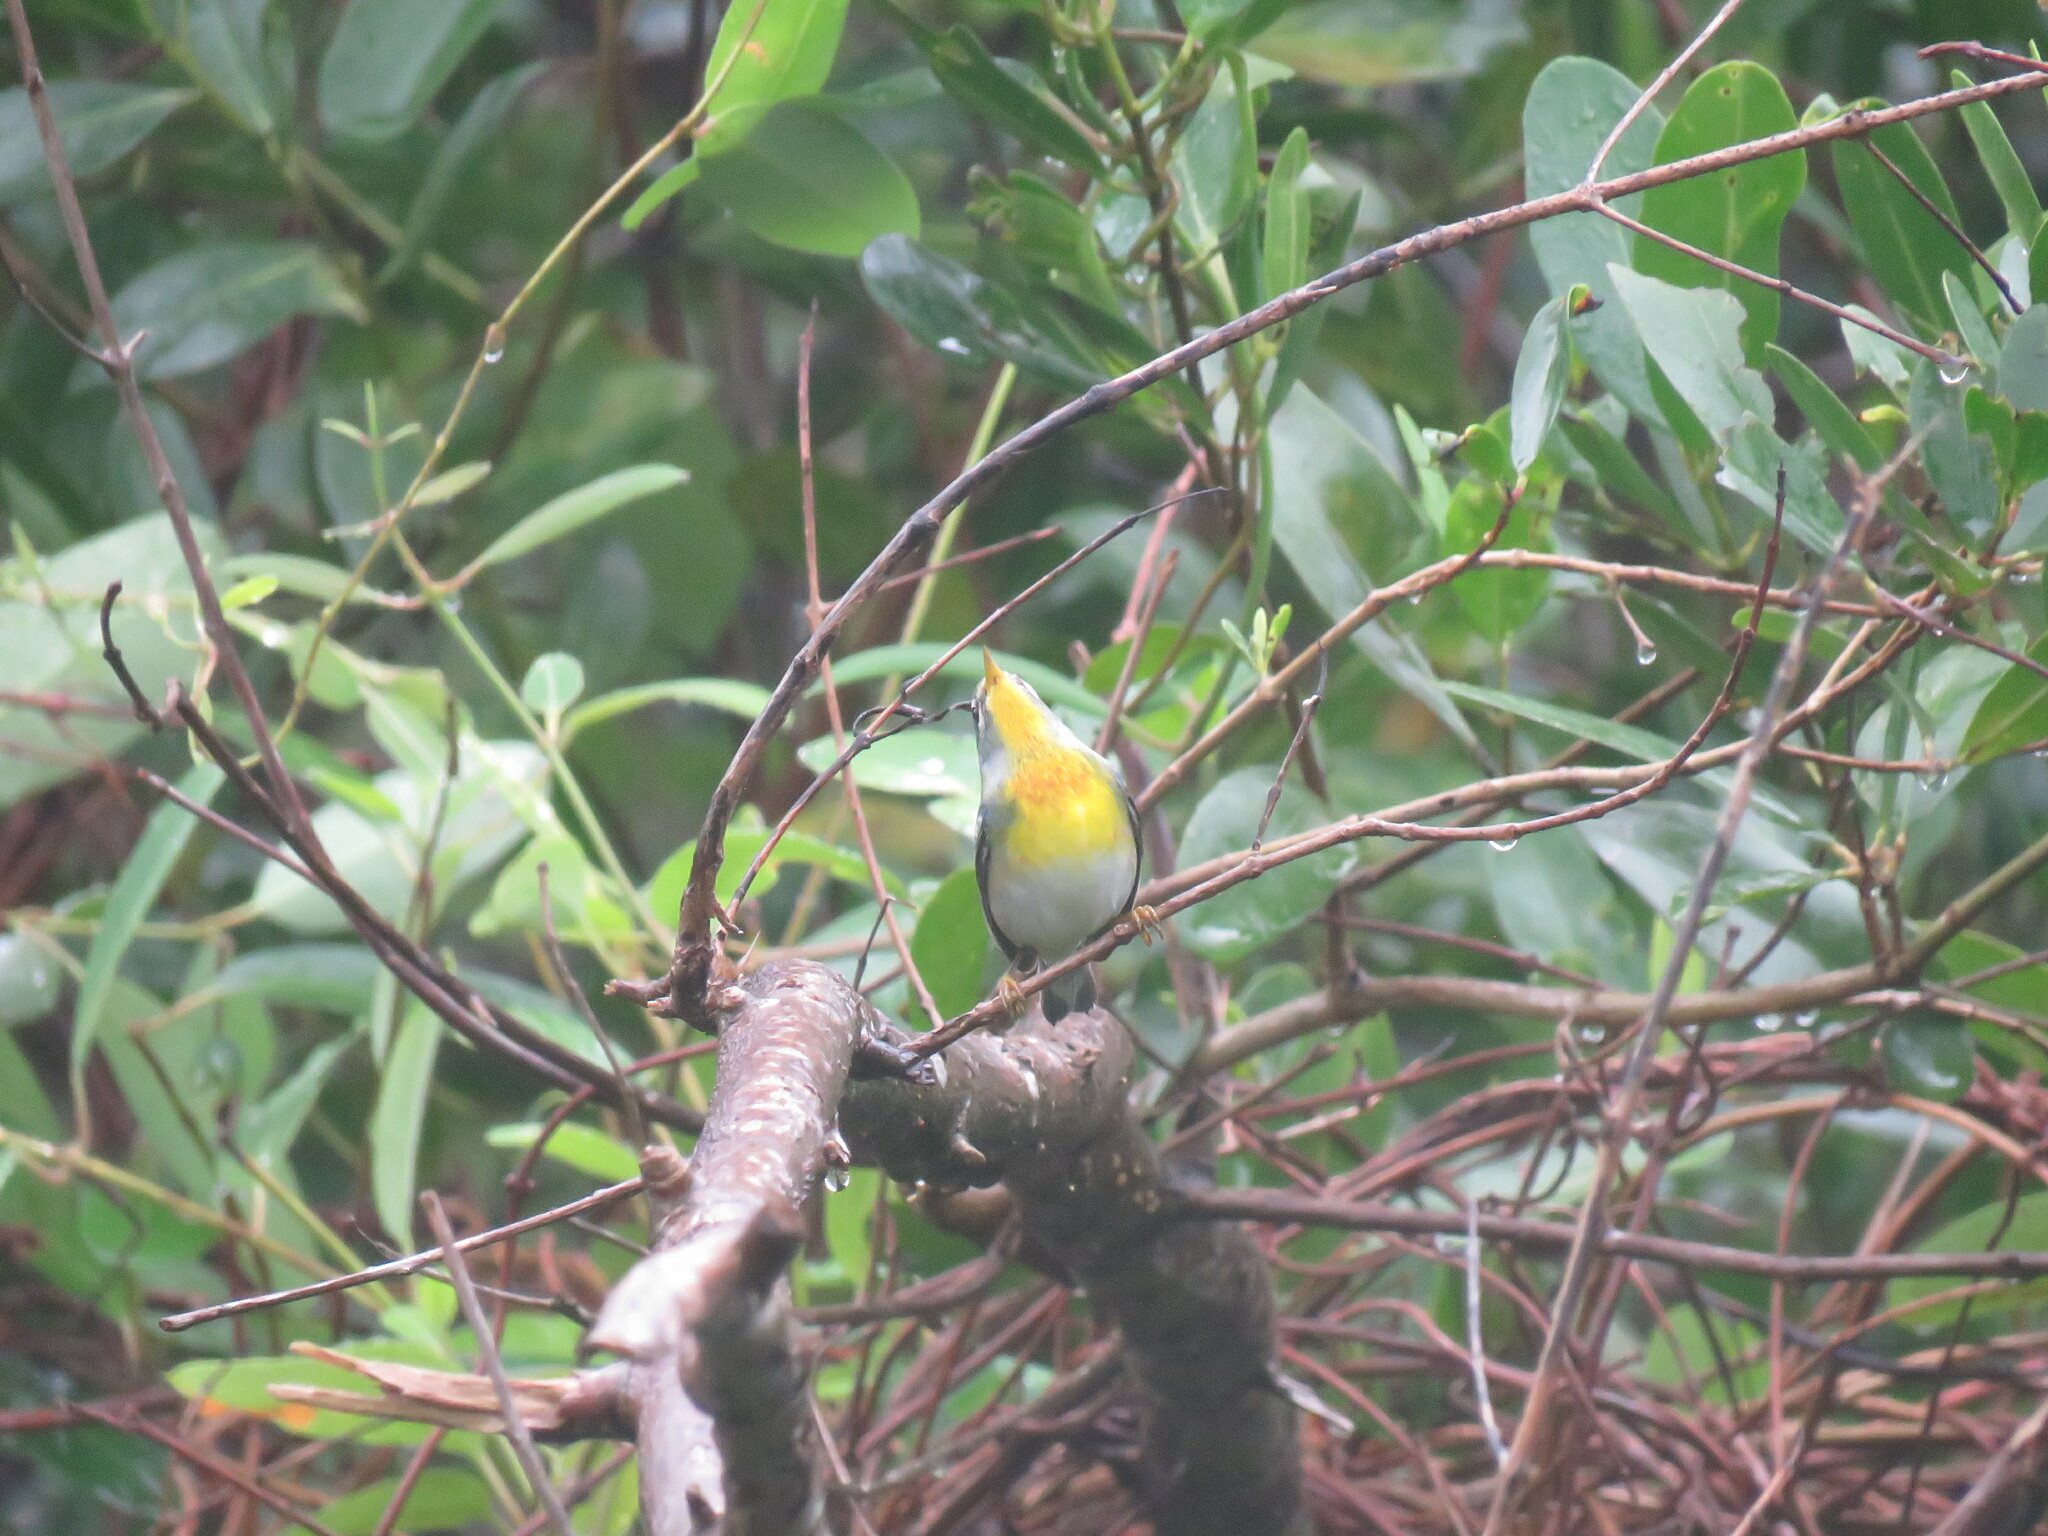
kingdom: Animalia
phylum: Chordata
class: Aves
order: Passeriformes
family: Parulidae
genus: Setophaga
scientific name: Setophaga americana
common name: Northern parula
